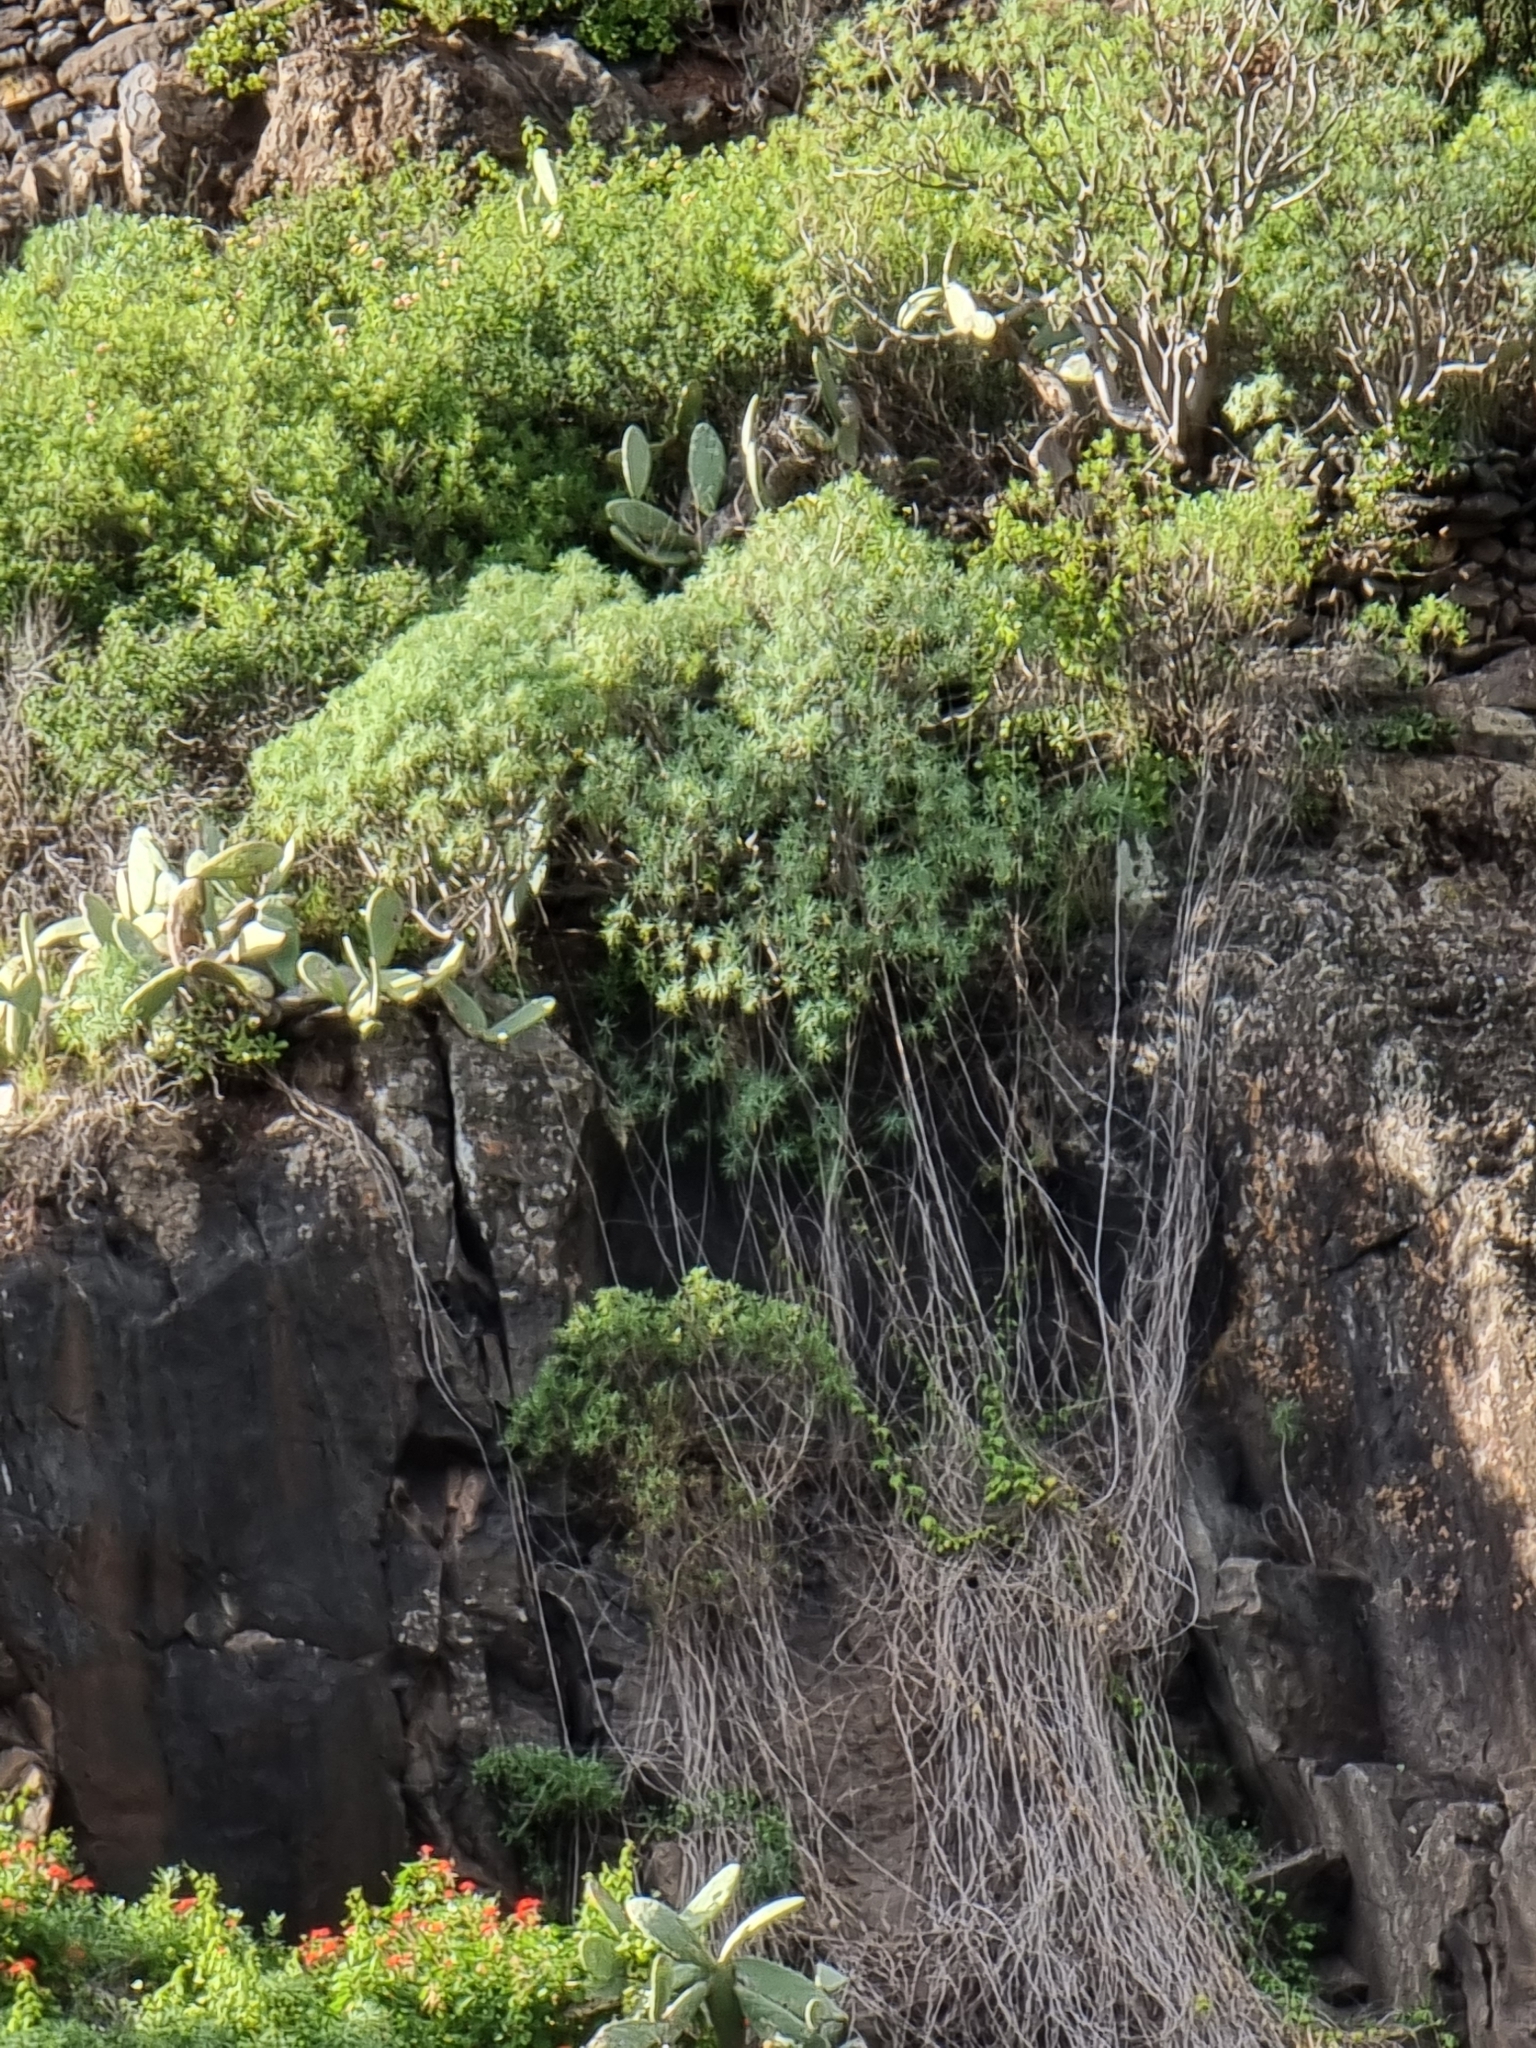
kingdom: Plantae
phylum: Tracheophyta
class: Magnoliopsida
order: Malpighiales
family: Euphorbiaceae
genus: Euphorbia
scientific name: Euphorbia piscatoria
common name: Fish-stunning spurge
